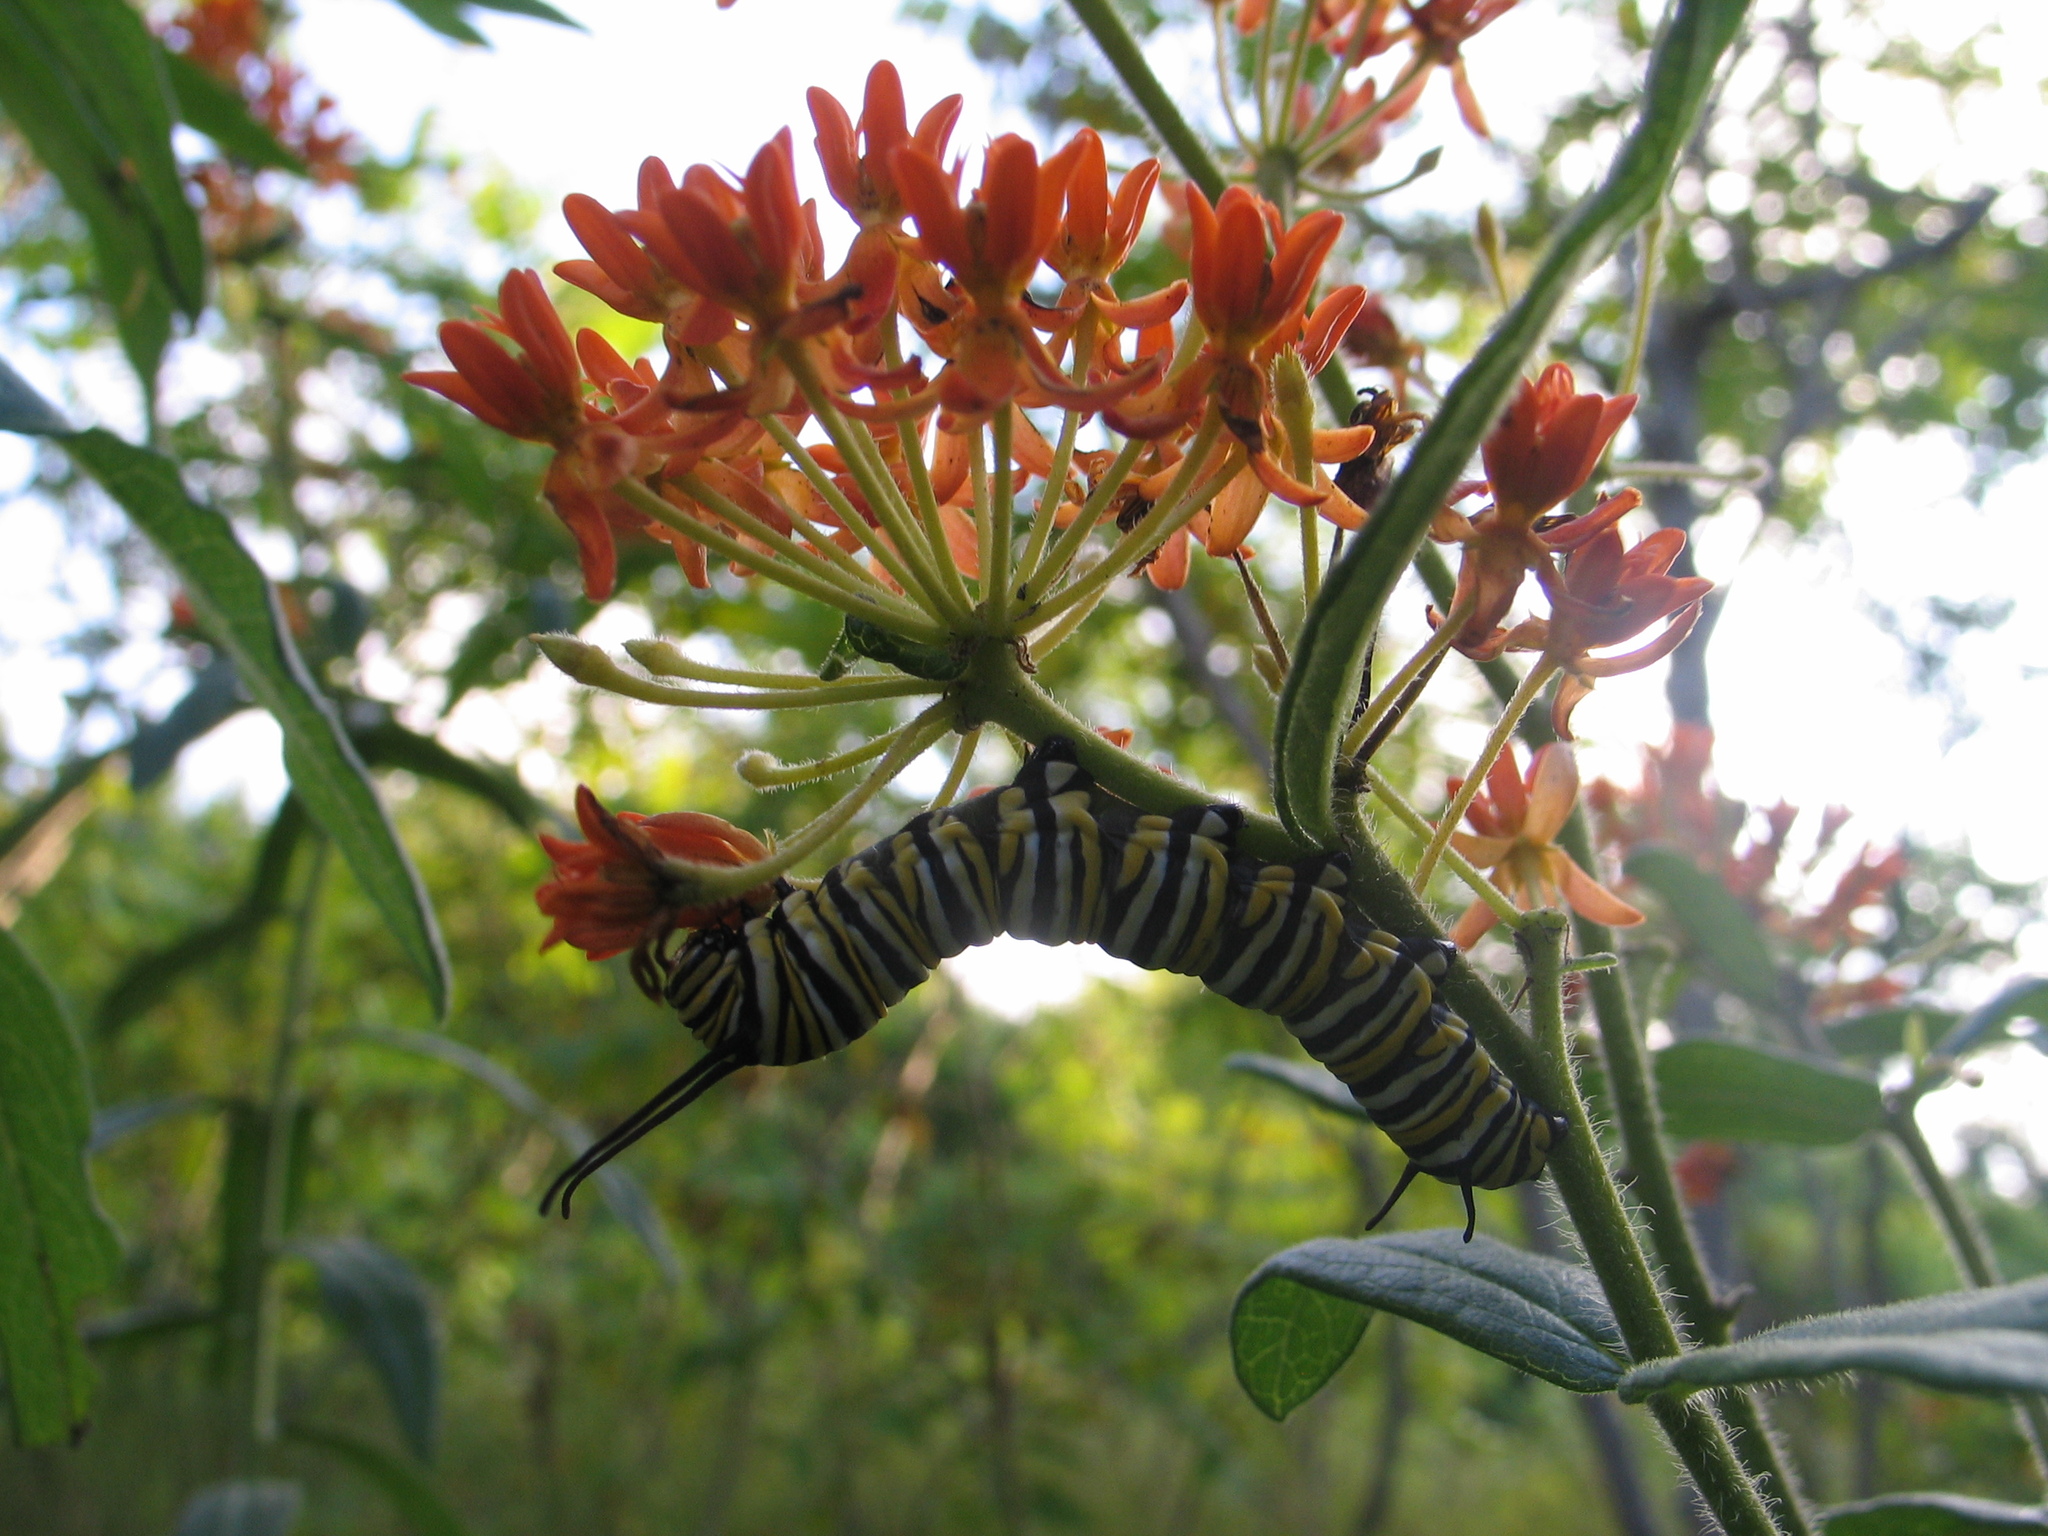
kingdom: Animalia
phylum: Arthropoda
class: Insecta
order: Lepidoptera
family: Nymphalidae
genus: Danaus
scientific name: Danaus plexippus
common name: Monarch
